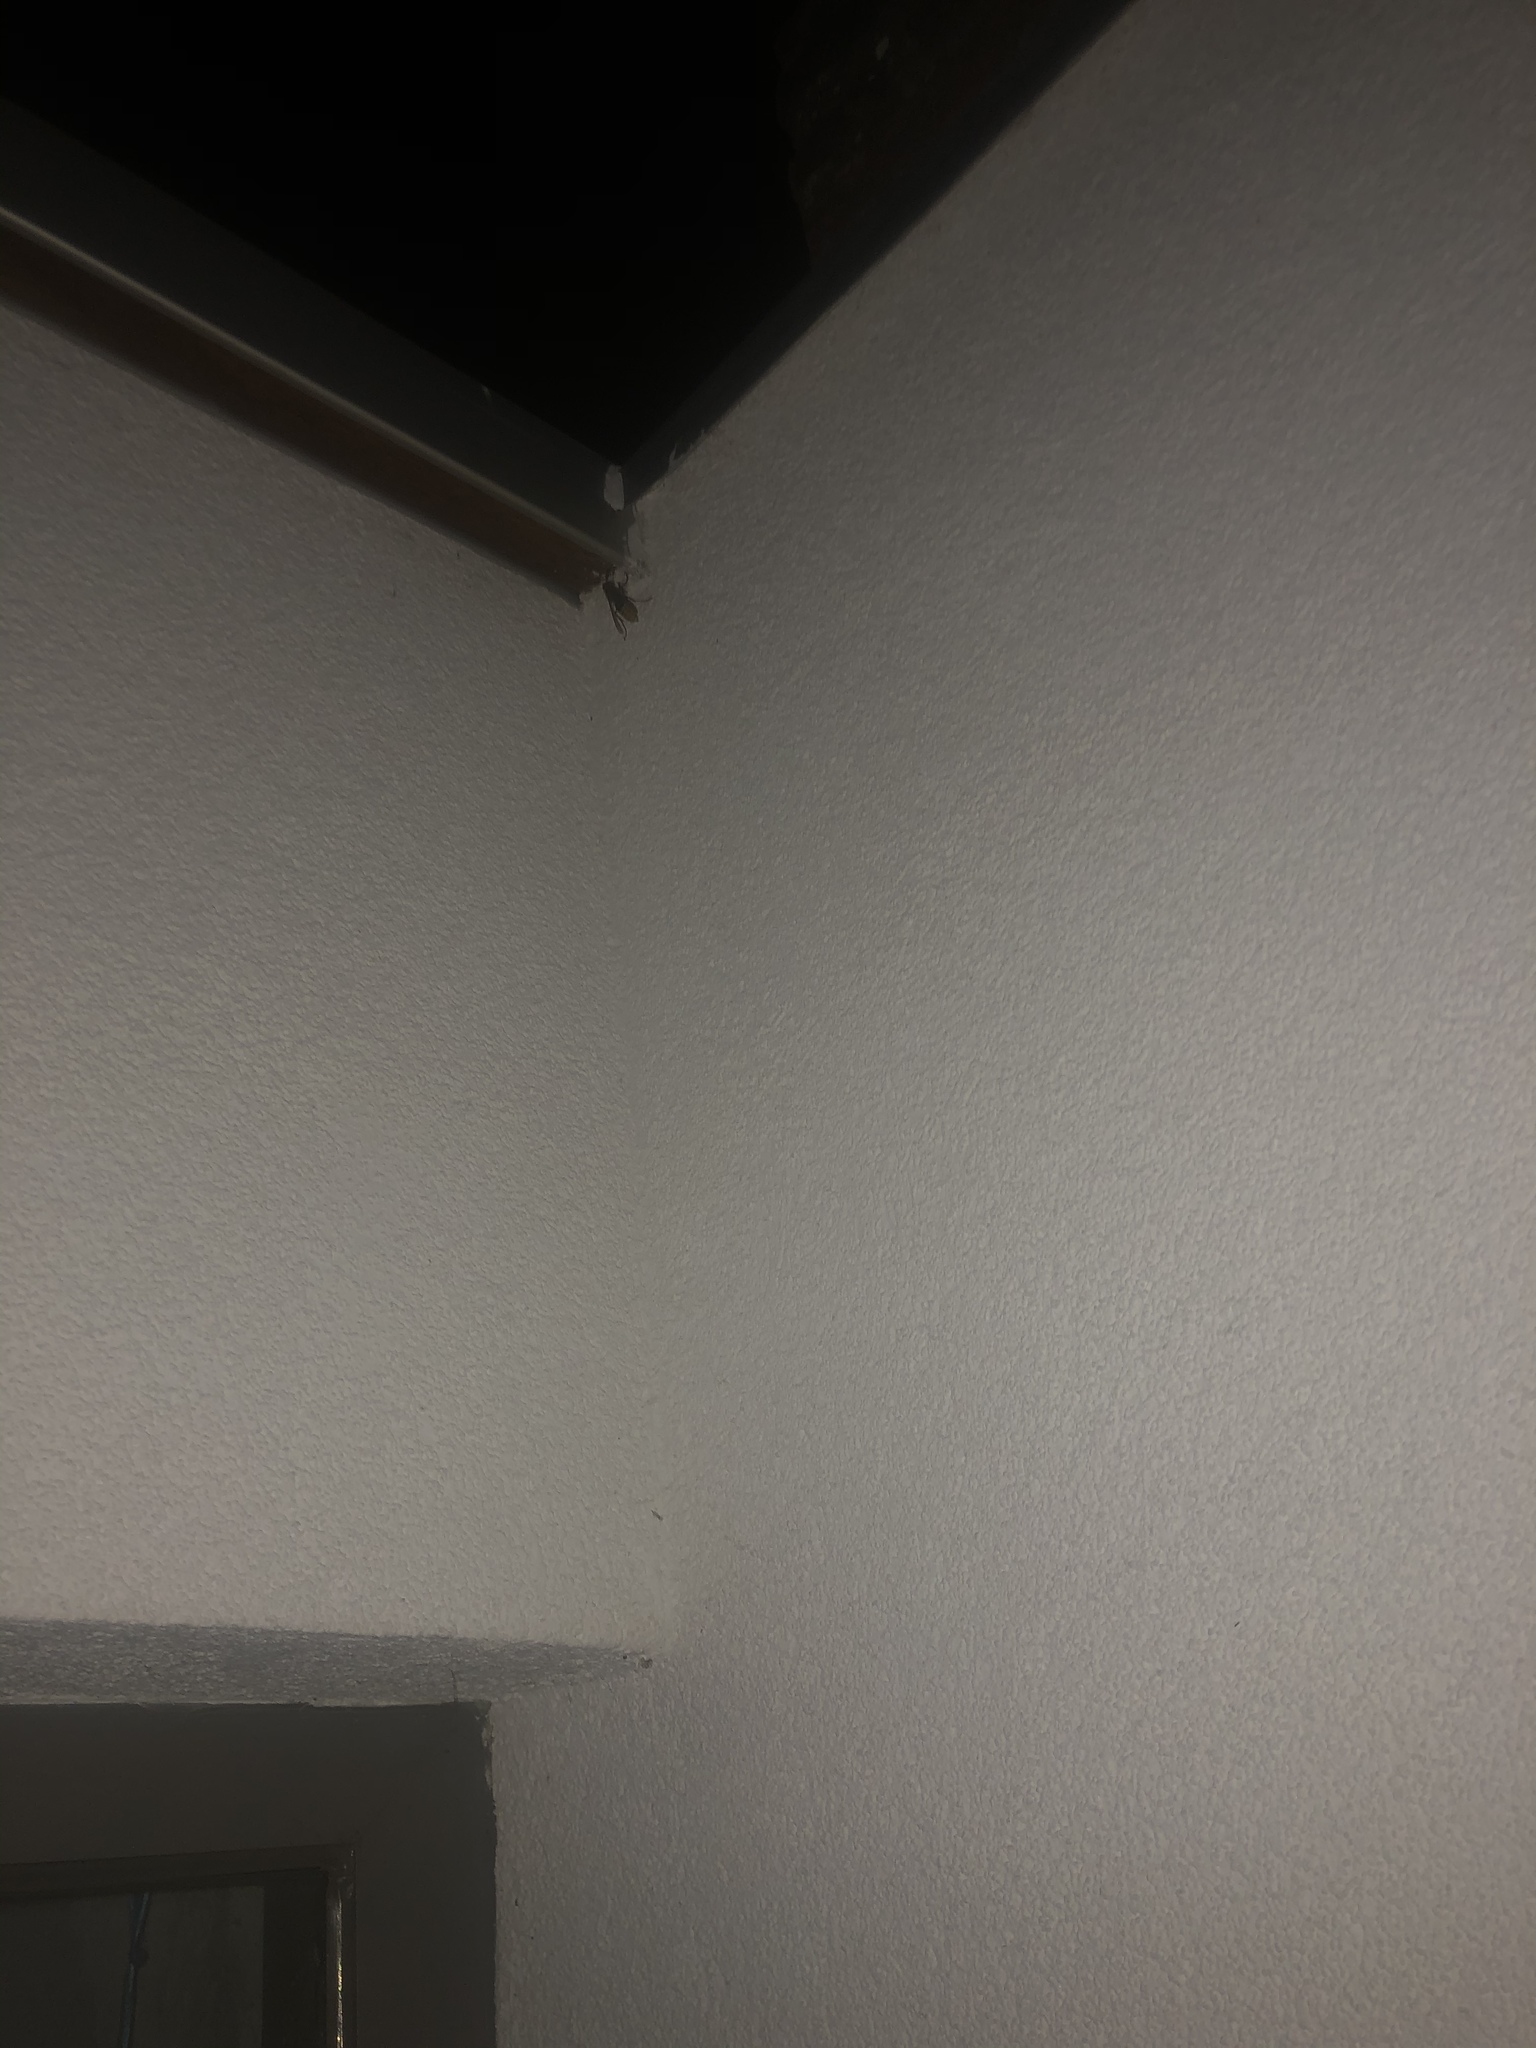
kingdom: Animalia
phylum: Arthropoda
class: Insecta
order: Hymenoptera
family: Vespidae
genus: Vespa
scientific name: Vespa crabro
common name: Hornet
